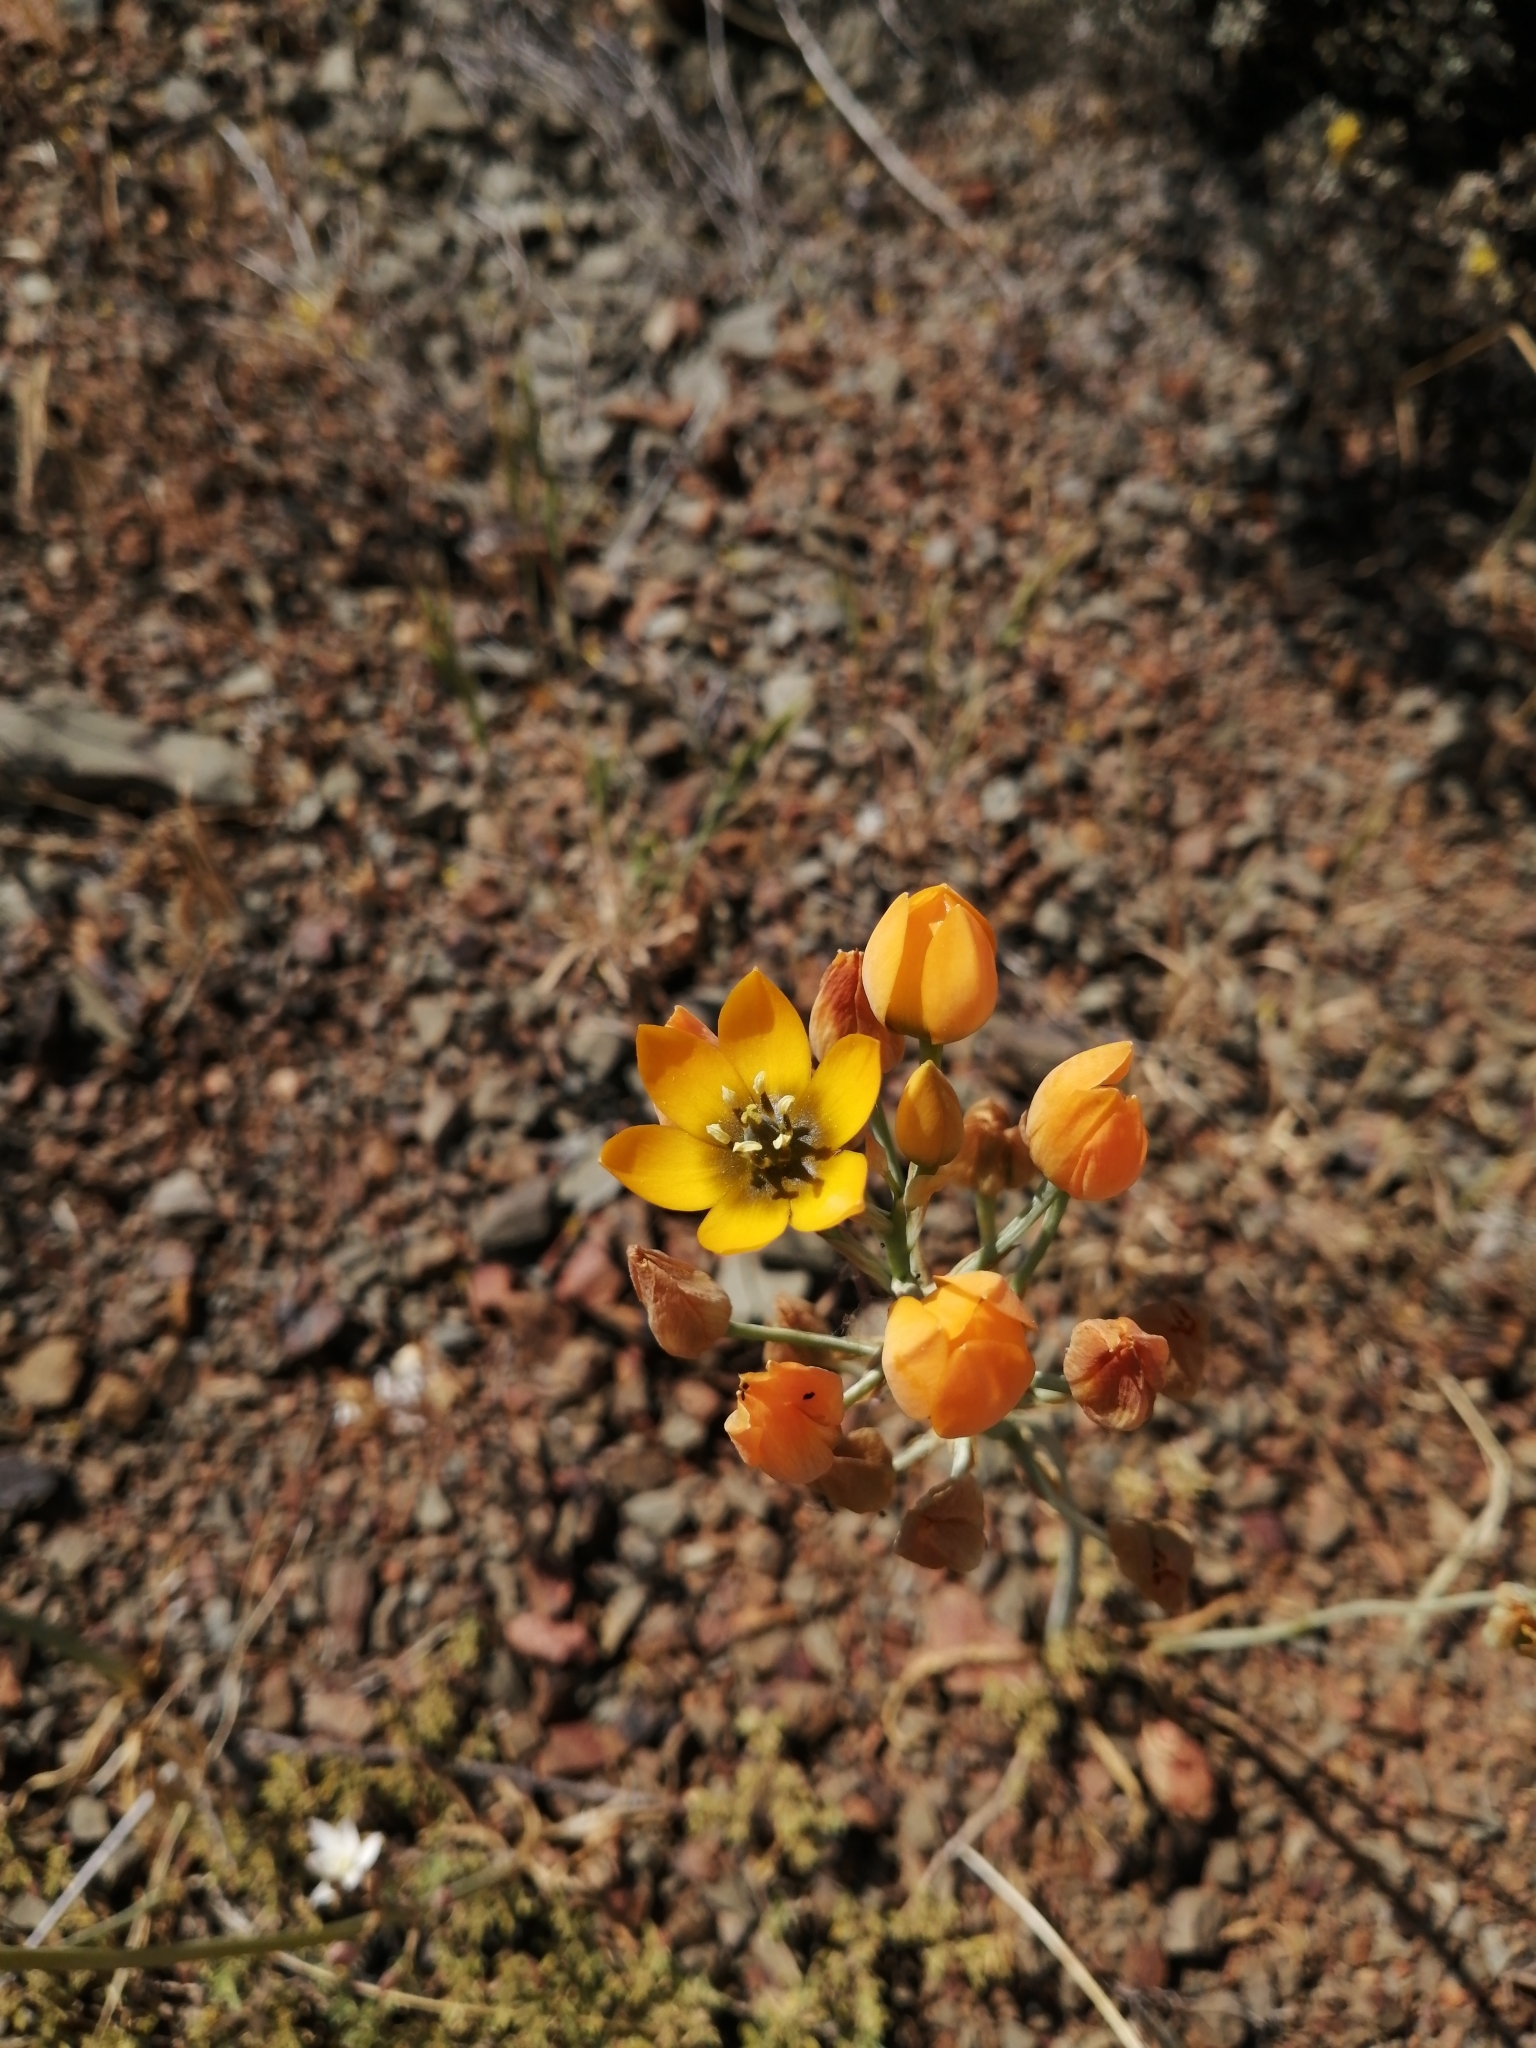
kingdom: Plantae
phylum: Tracheophyta
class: Liliopsida
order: Asparagales
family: Asparagaceae
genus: Ornithogalum
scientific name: Ornithogalum dubium
